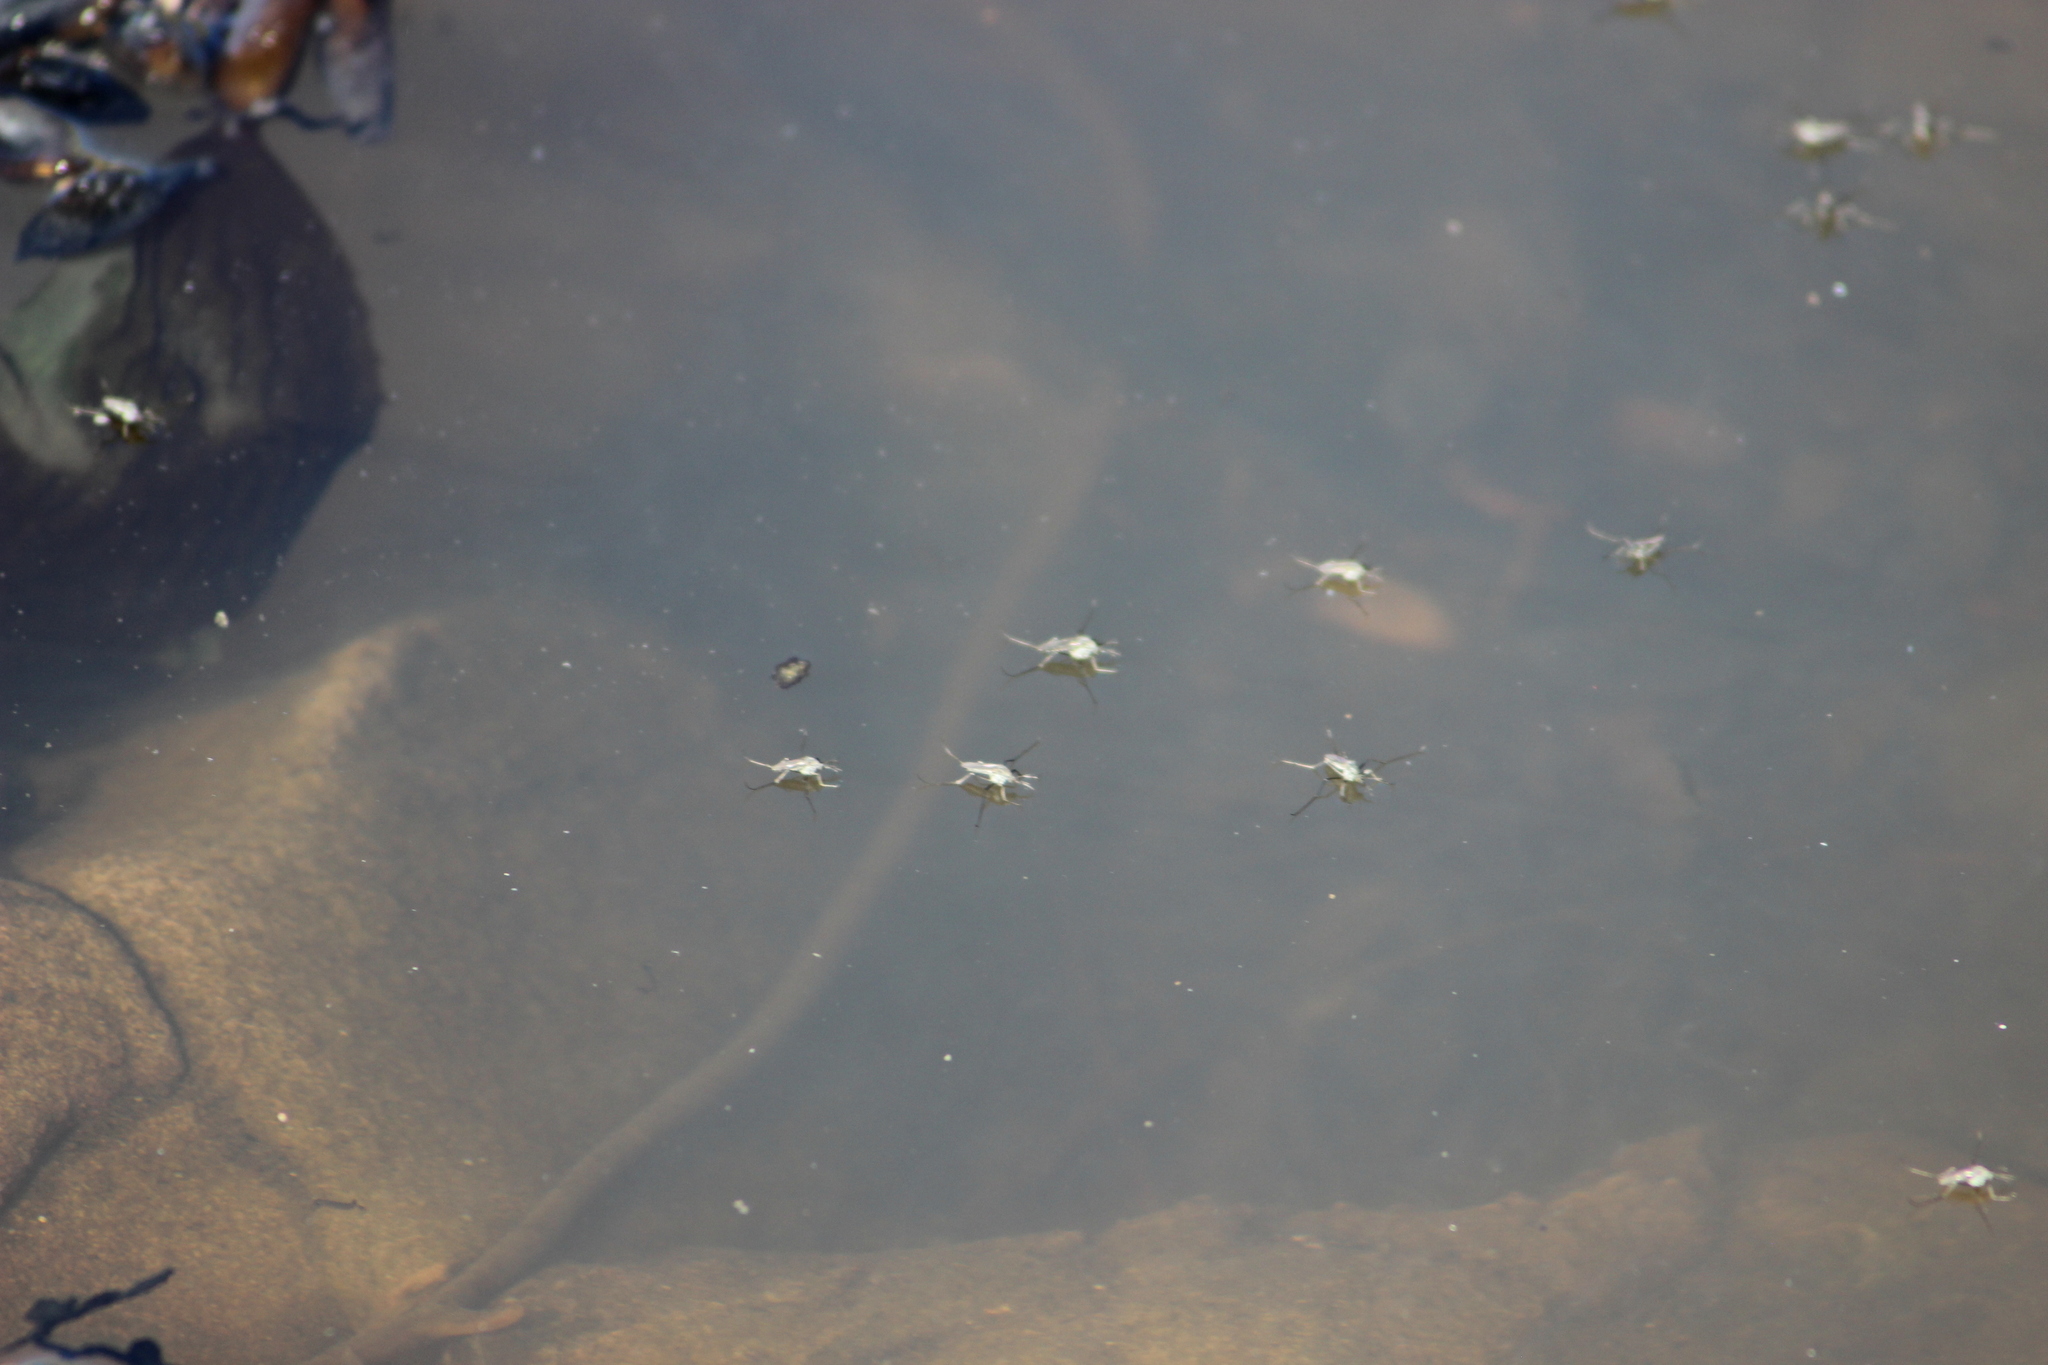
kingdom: Animalia
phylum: Arthropoda
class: Insecta
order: Diptera
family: Culicidae
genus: Opifex
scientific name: Opifex fuscus
